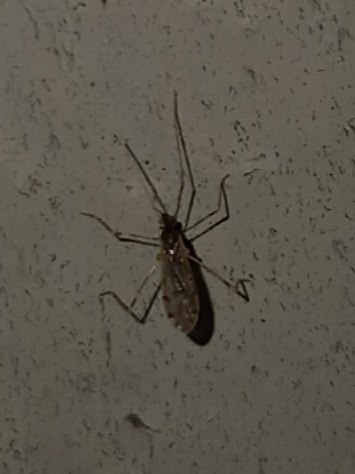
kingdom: Animalia
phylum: Arthropoda
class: Insecta
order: Diptera
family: Limoniidae
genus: Erioptera
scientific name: Erioptera parva
